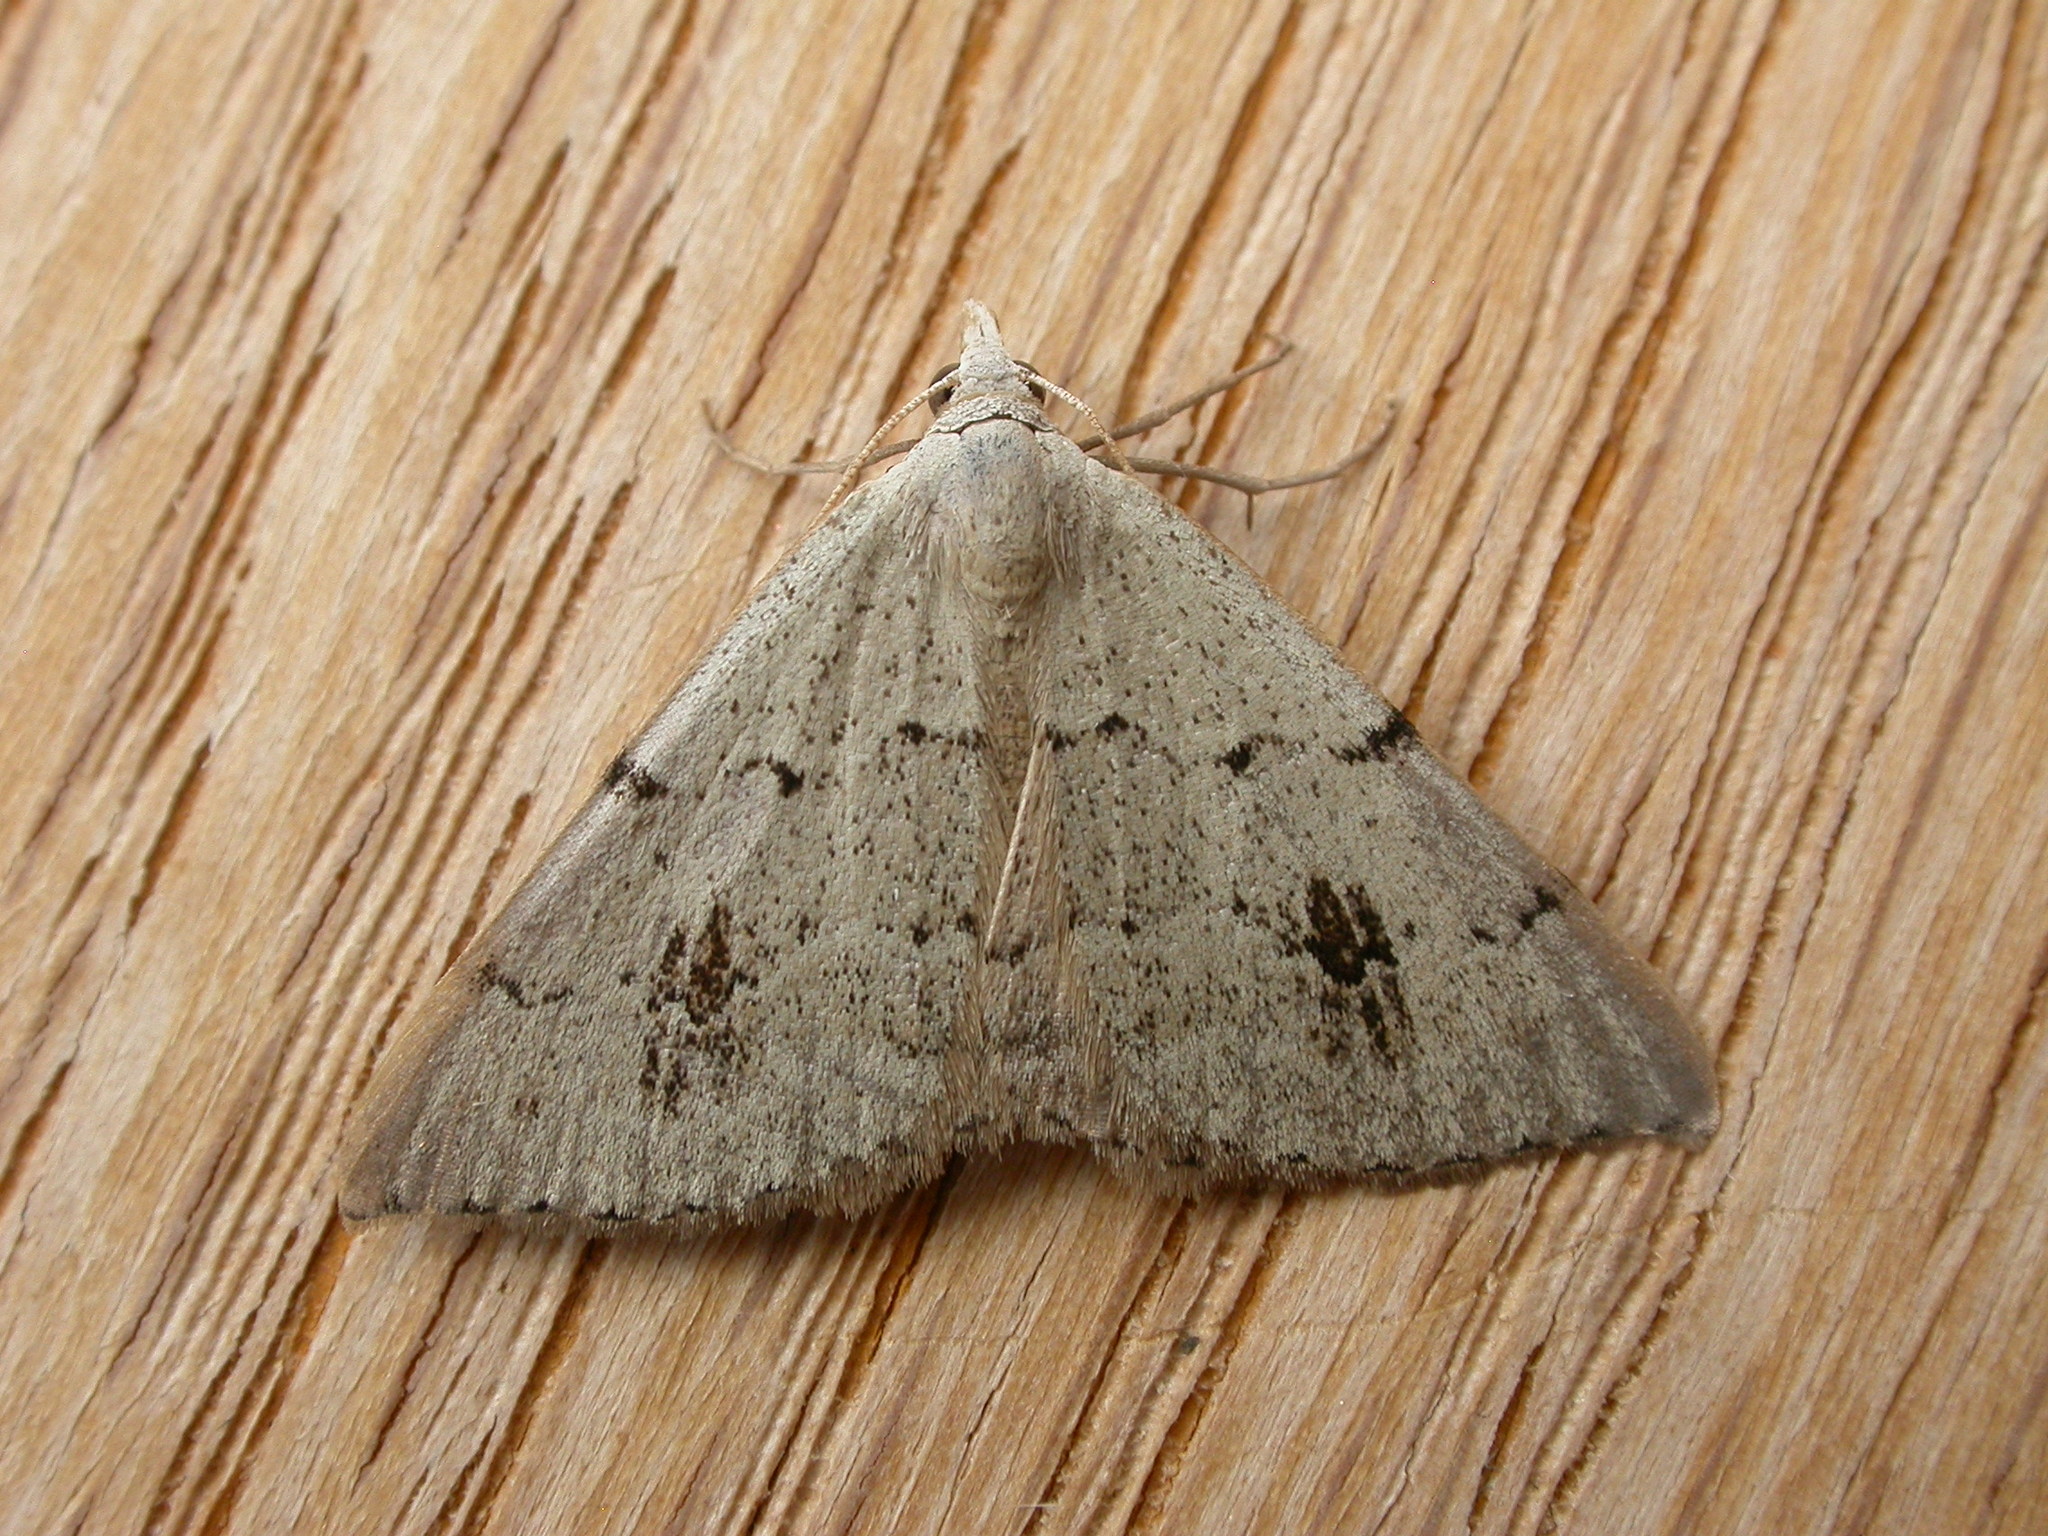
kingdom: Animalia
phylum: Arthropoda
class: Insecta
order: Lepidoptera
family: Geometridae
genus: Dichromodes
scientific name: Dichromodes estigmaria
